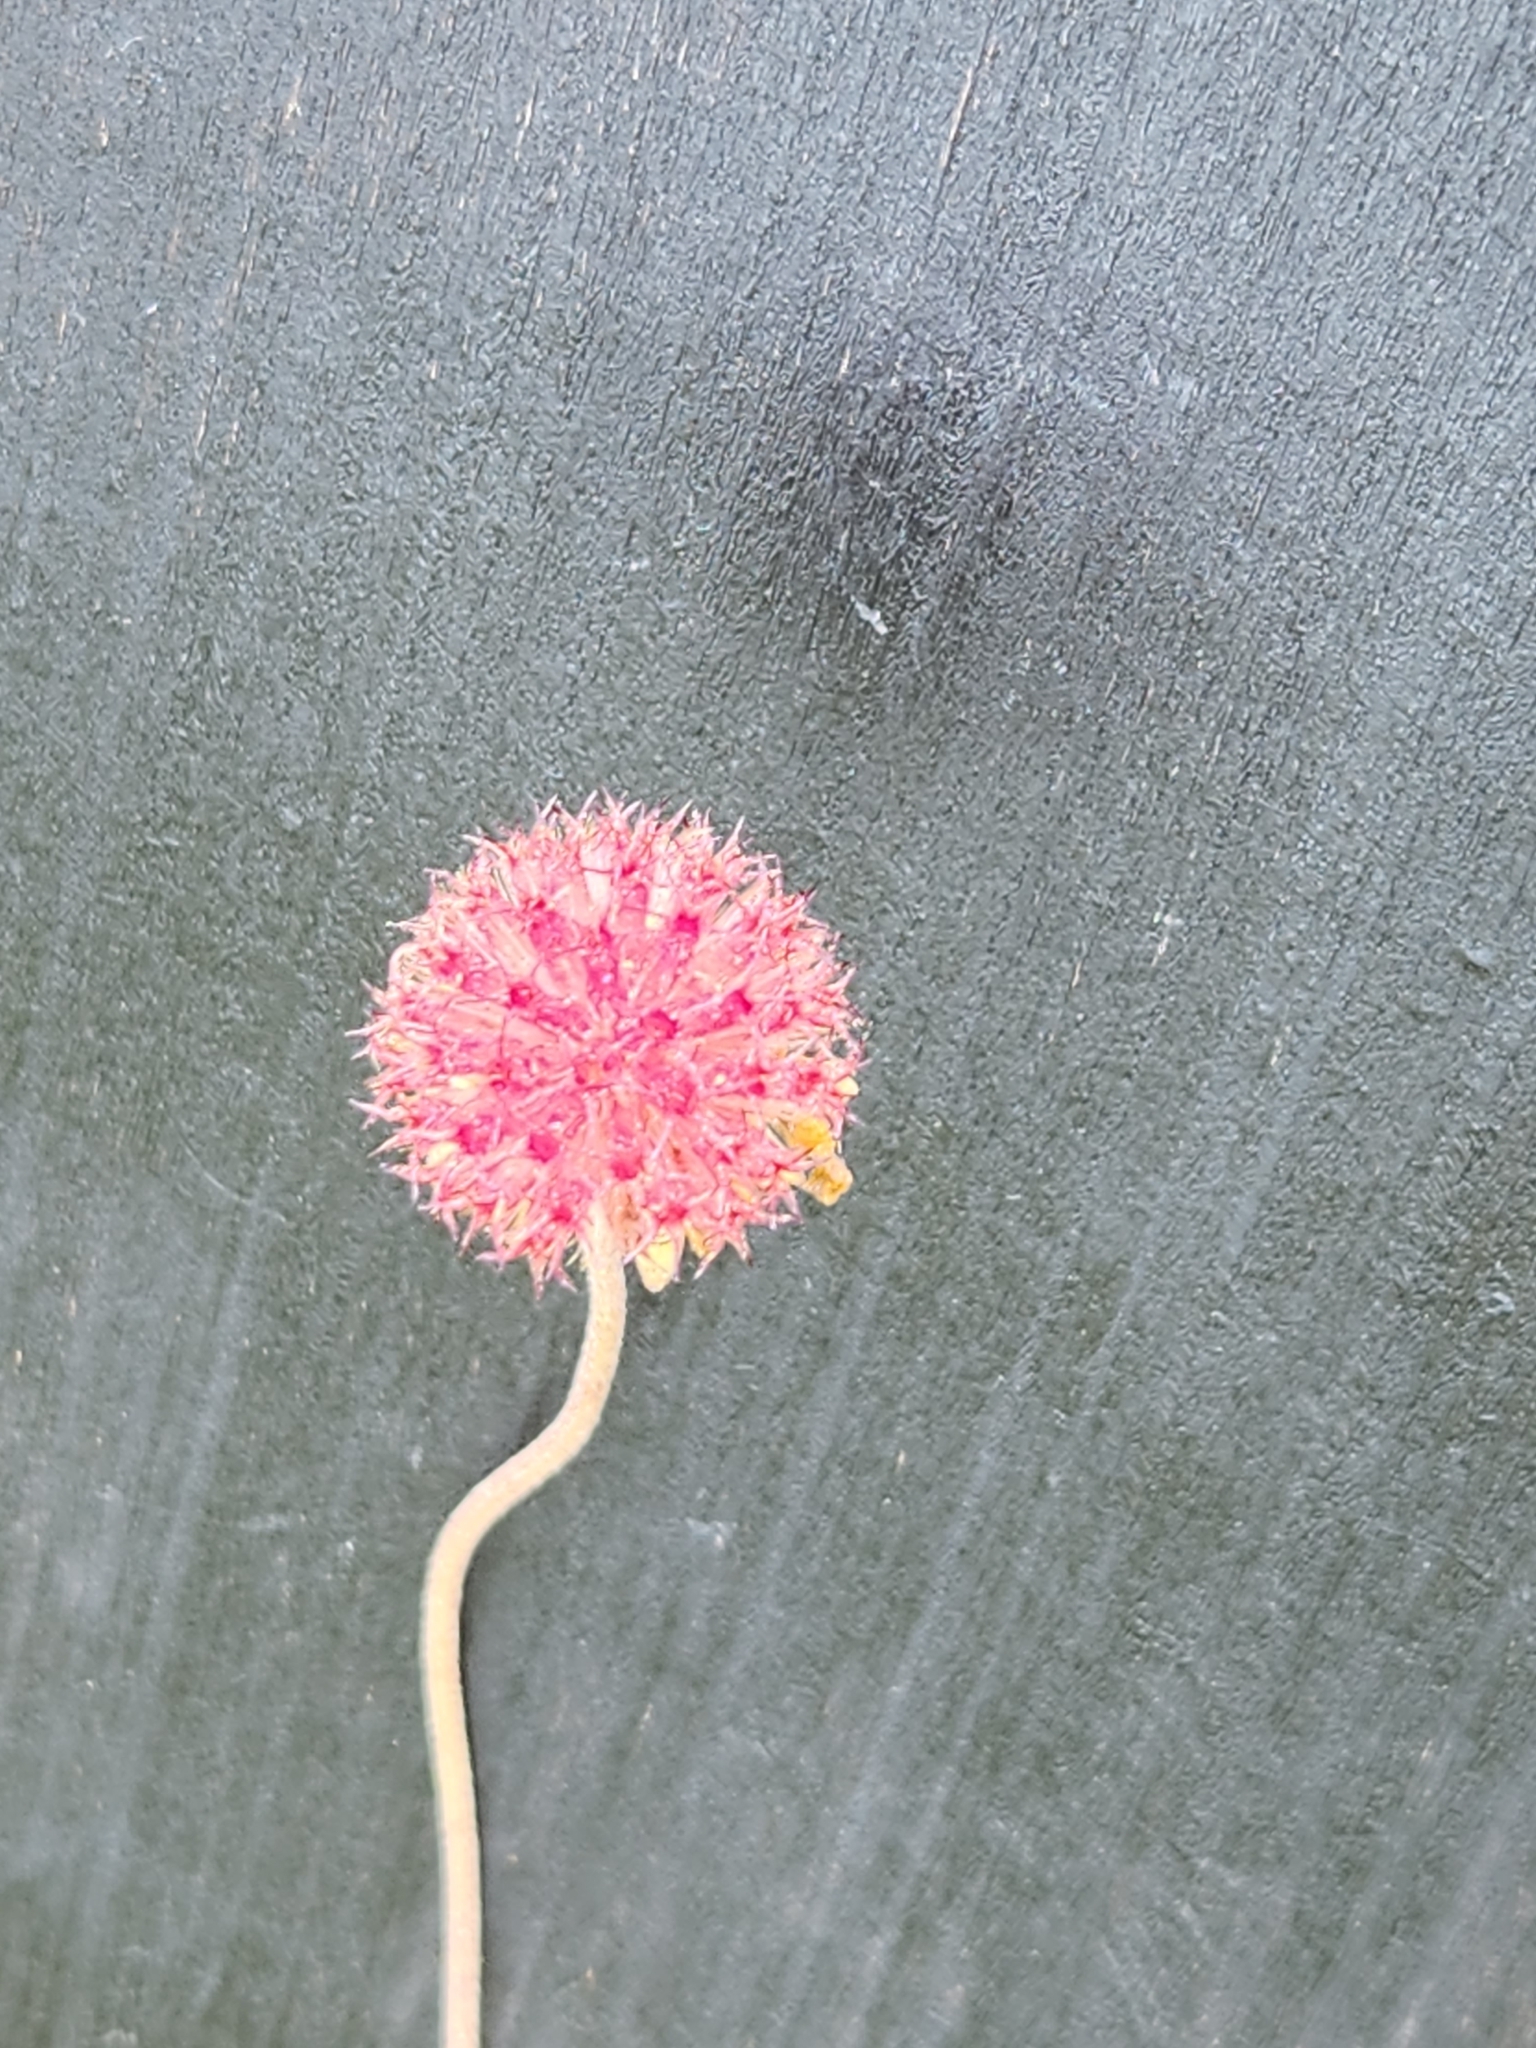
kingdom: Plantae
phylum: Tracheophyta
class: Magnoliopsida
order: Asterales
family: Asteraceae
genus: Gaillardia
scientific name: Gaillardia suavis
